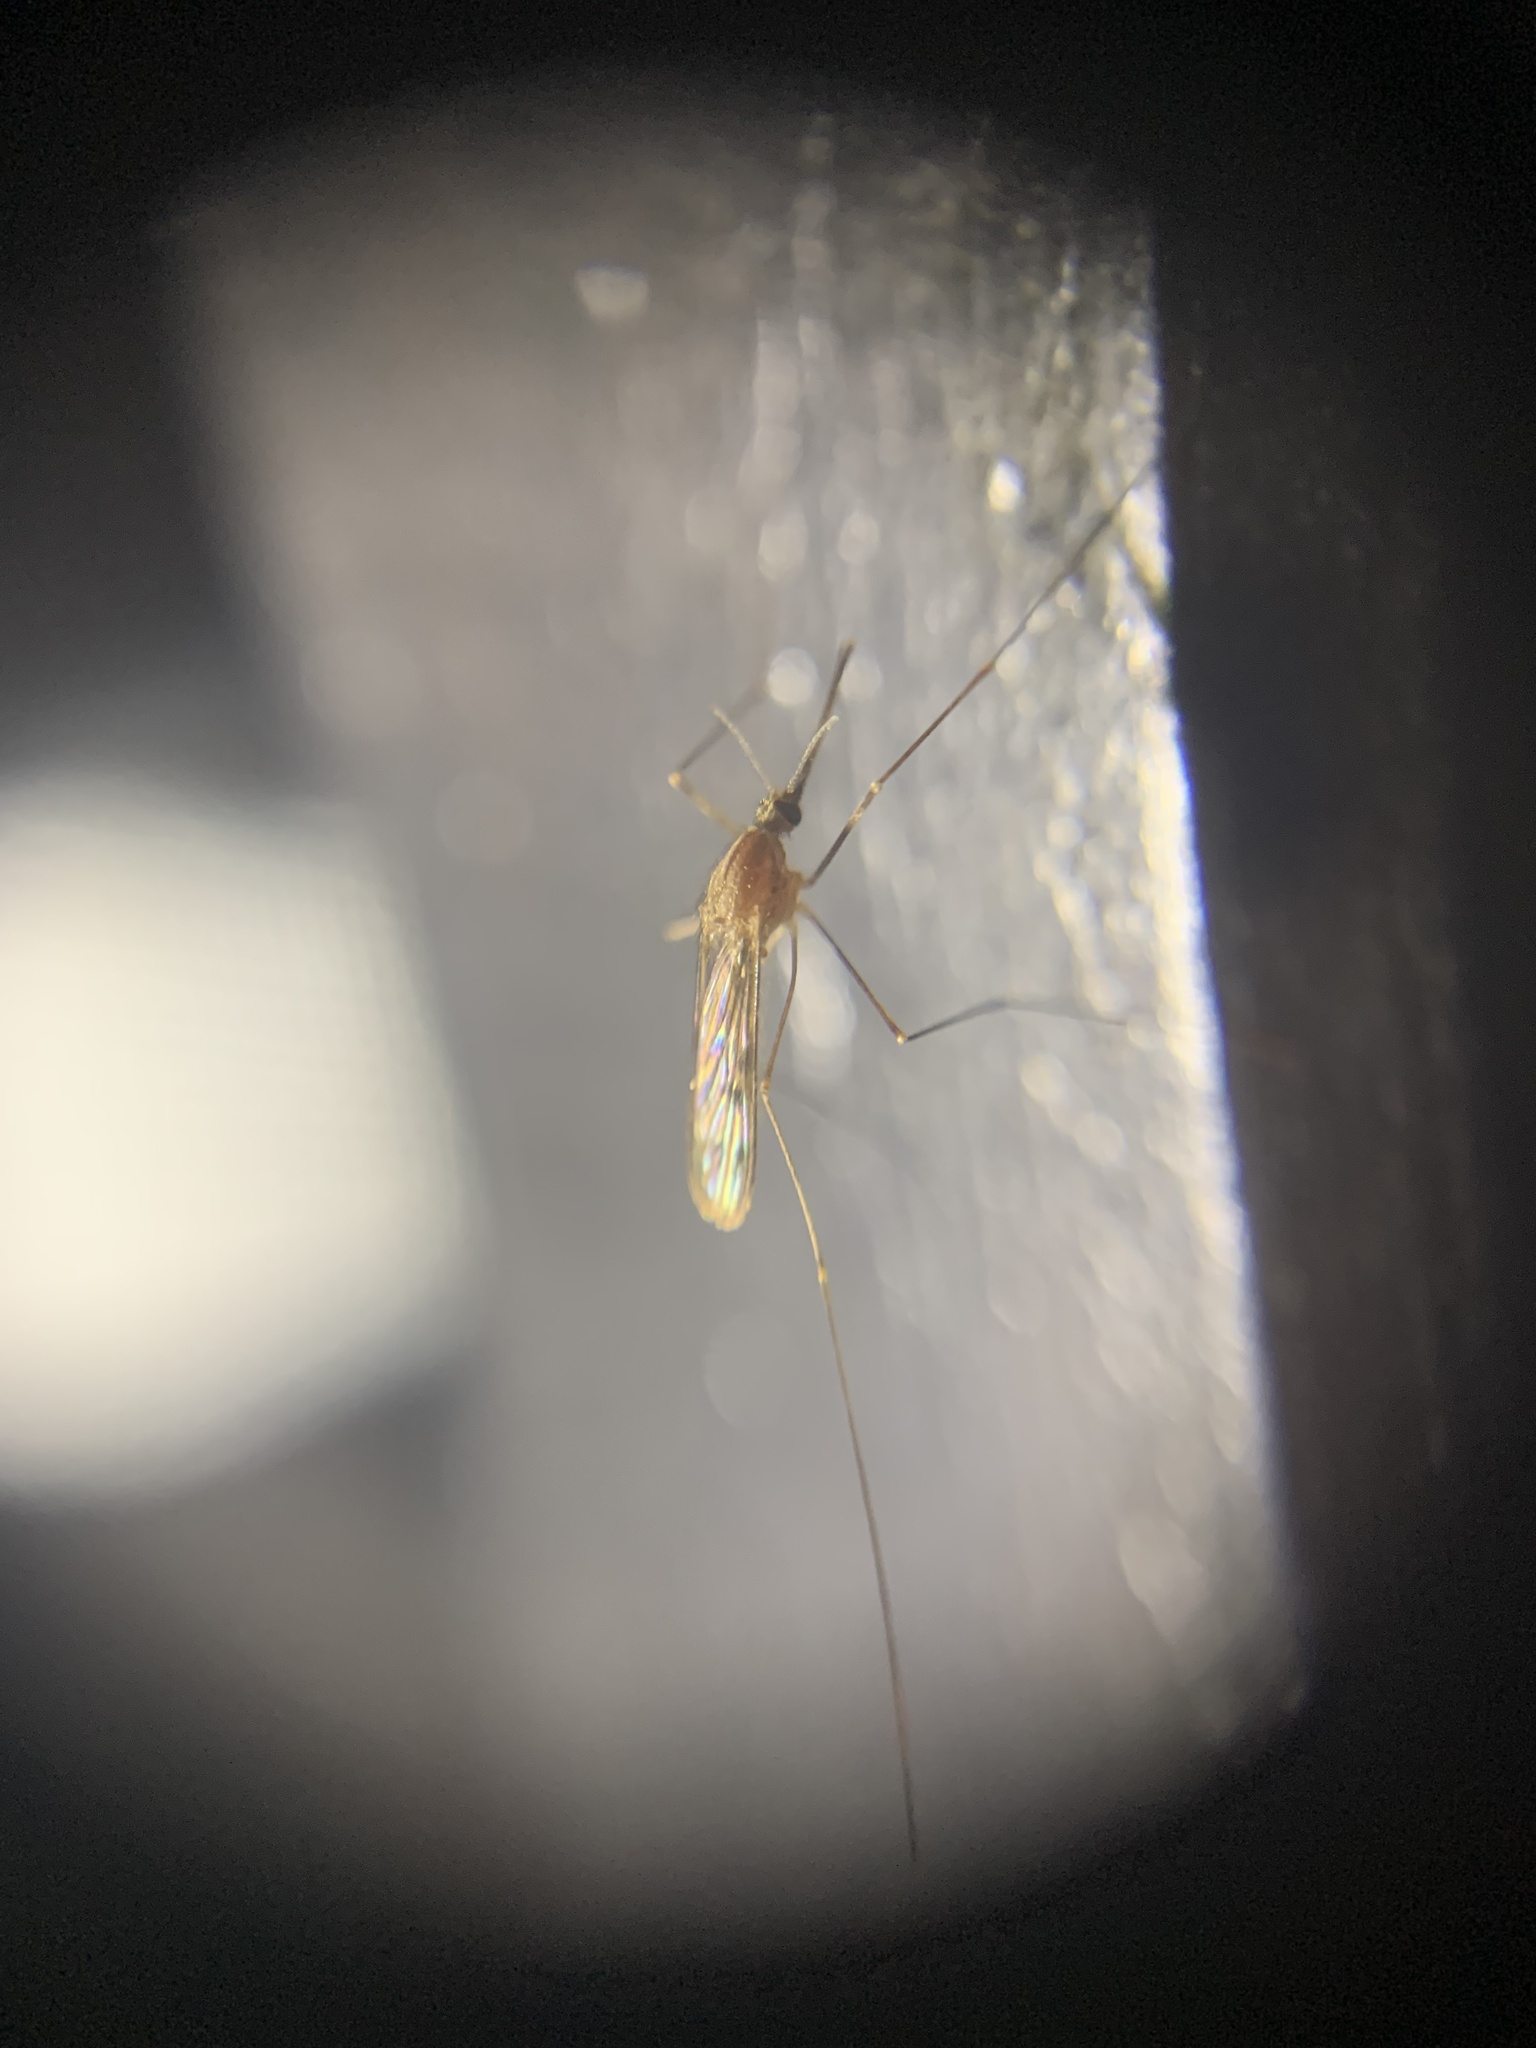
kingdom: Animalia
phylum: Arthropoda
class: Insecta
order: Diptera
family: Culicidae
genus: Anopheles
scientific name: Anopheles occidentalis
